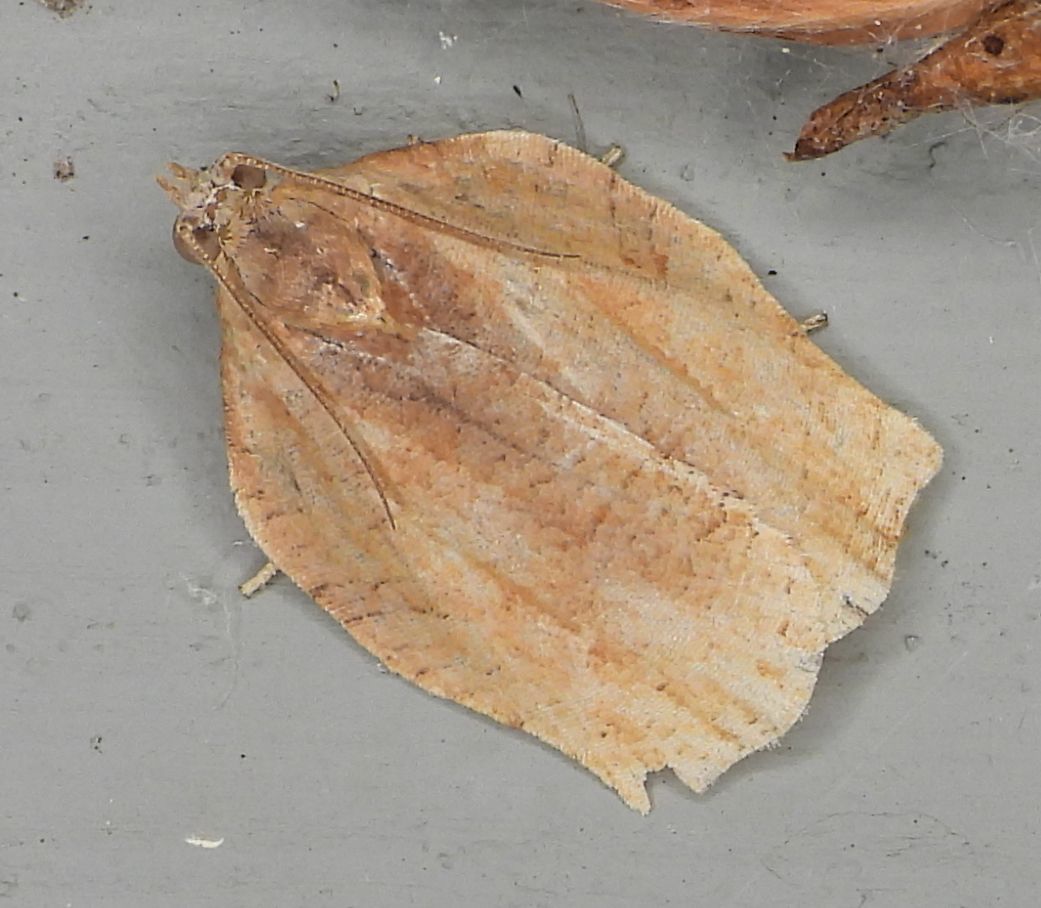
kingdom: Animalia
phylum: Arthropoda
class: Insecta
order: Lepidoptera
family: Tortricidae
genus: Archips
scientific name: Archips purpurana
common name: Omnivorous leafroller
